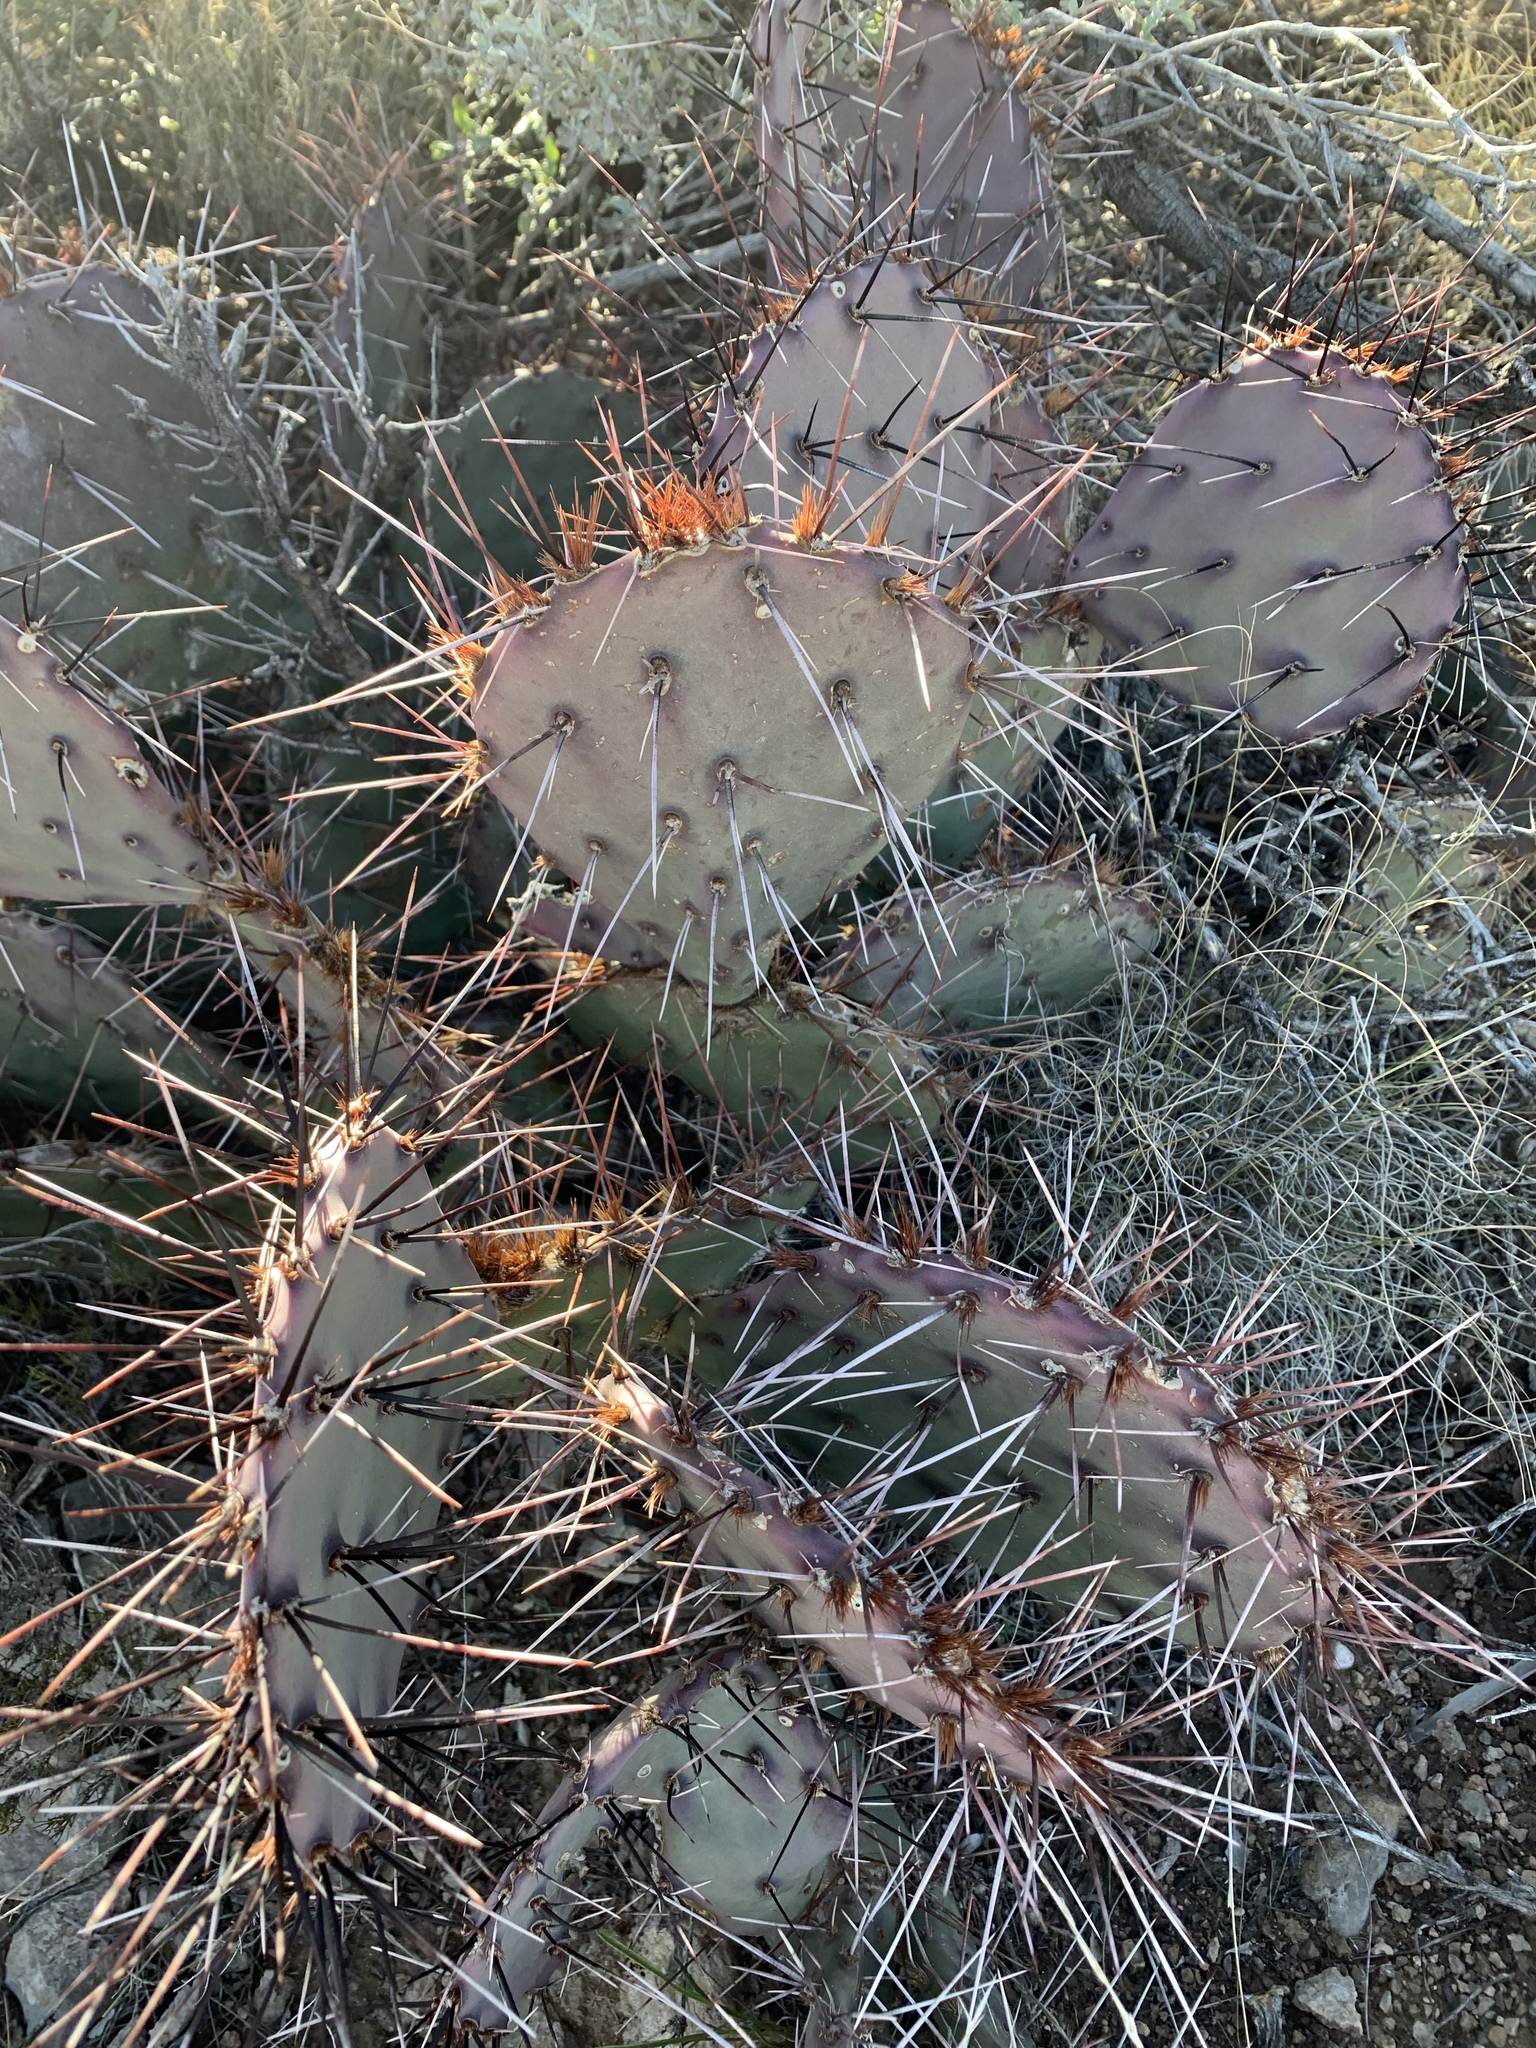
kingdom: Plantae
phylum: Tracheophyta
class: Magnoliopsida
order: Caryophyllales
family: Cactaceae
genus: Opuntia
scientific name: Opuntia macrocentra
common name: Purple prickly-pear
